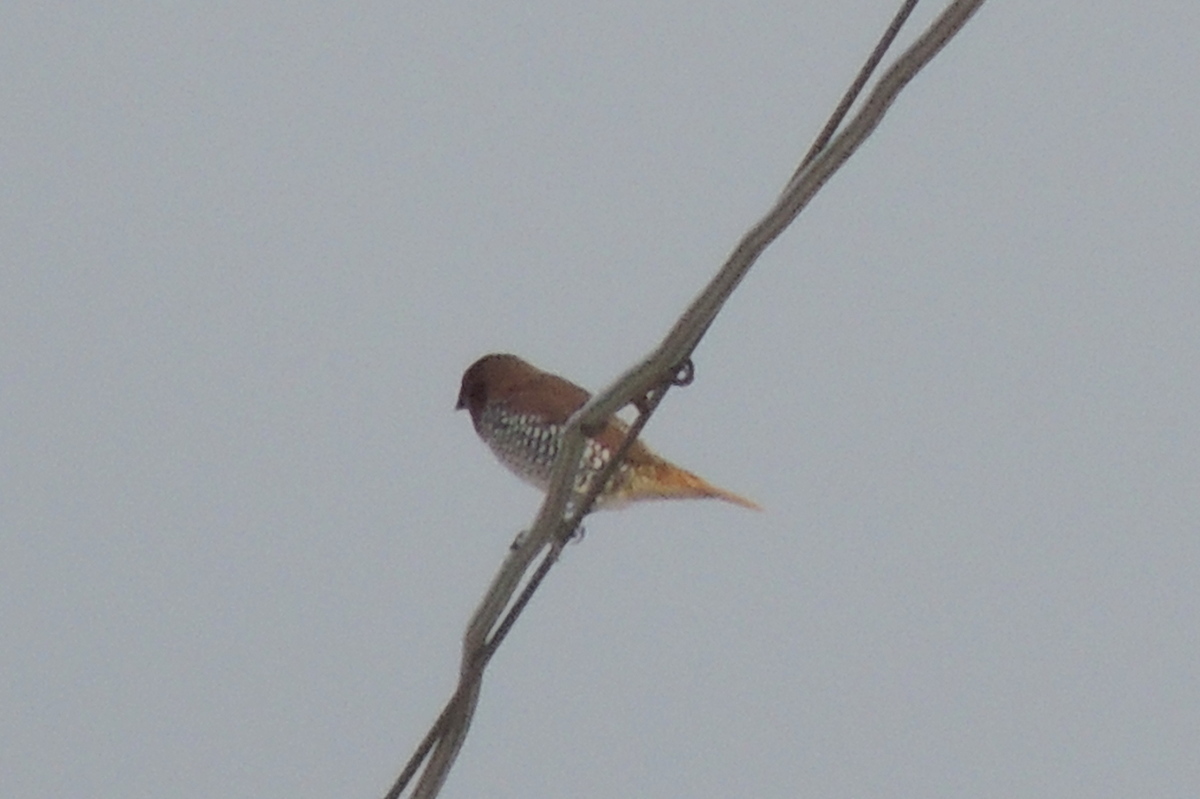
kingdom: Animalia
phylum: Chordata
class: Aves
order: Passeriformes
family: Estrildidae
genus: Lonchura
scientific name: Lonchura punctulata
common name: Scaly-breasted munia
